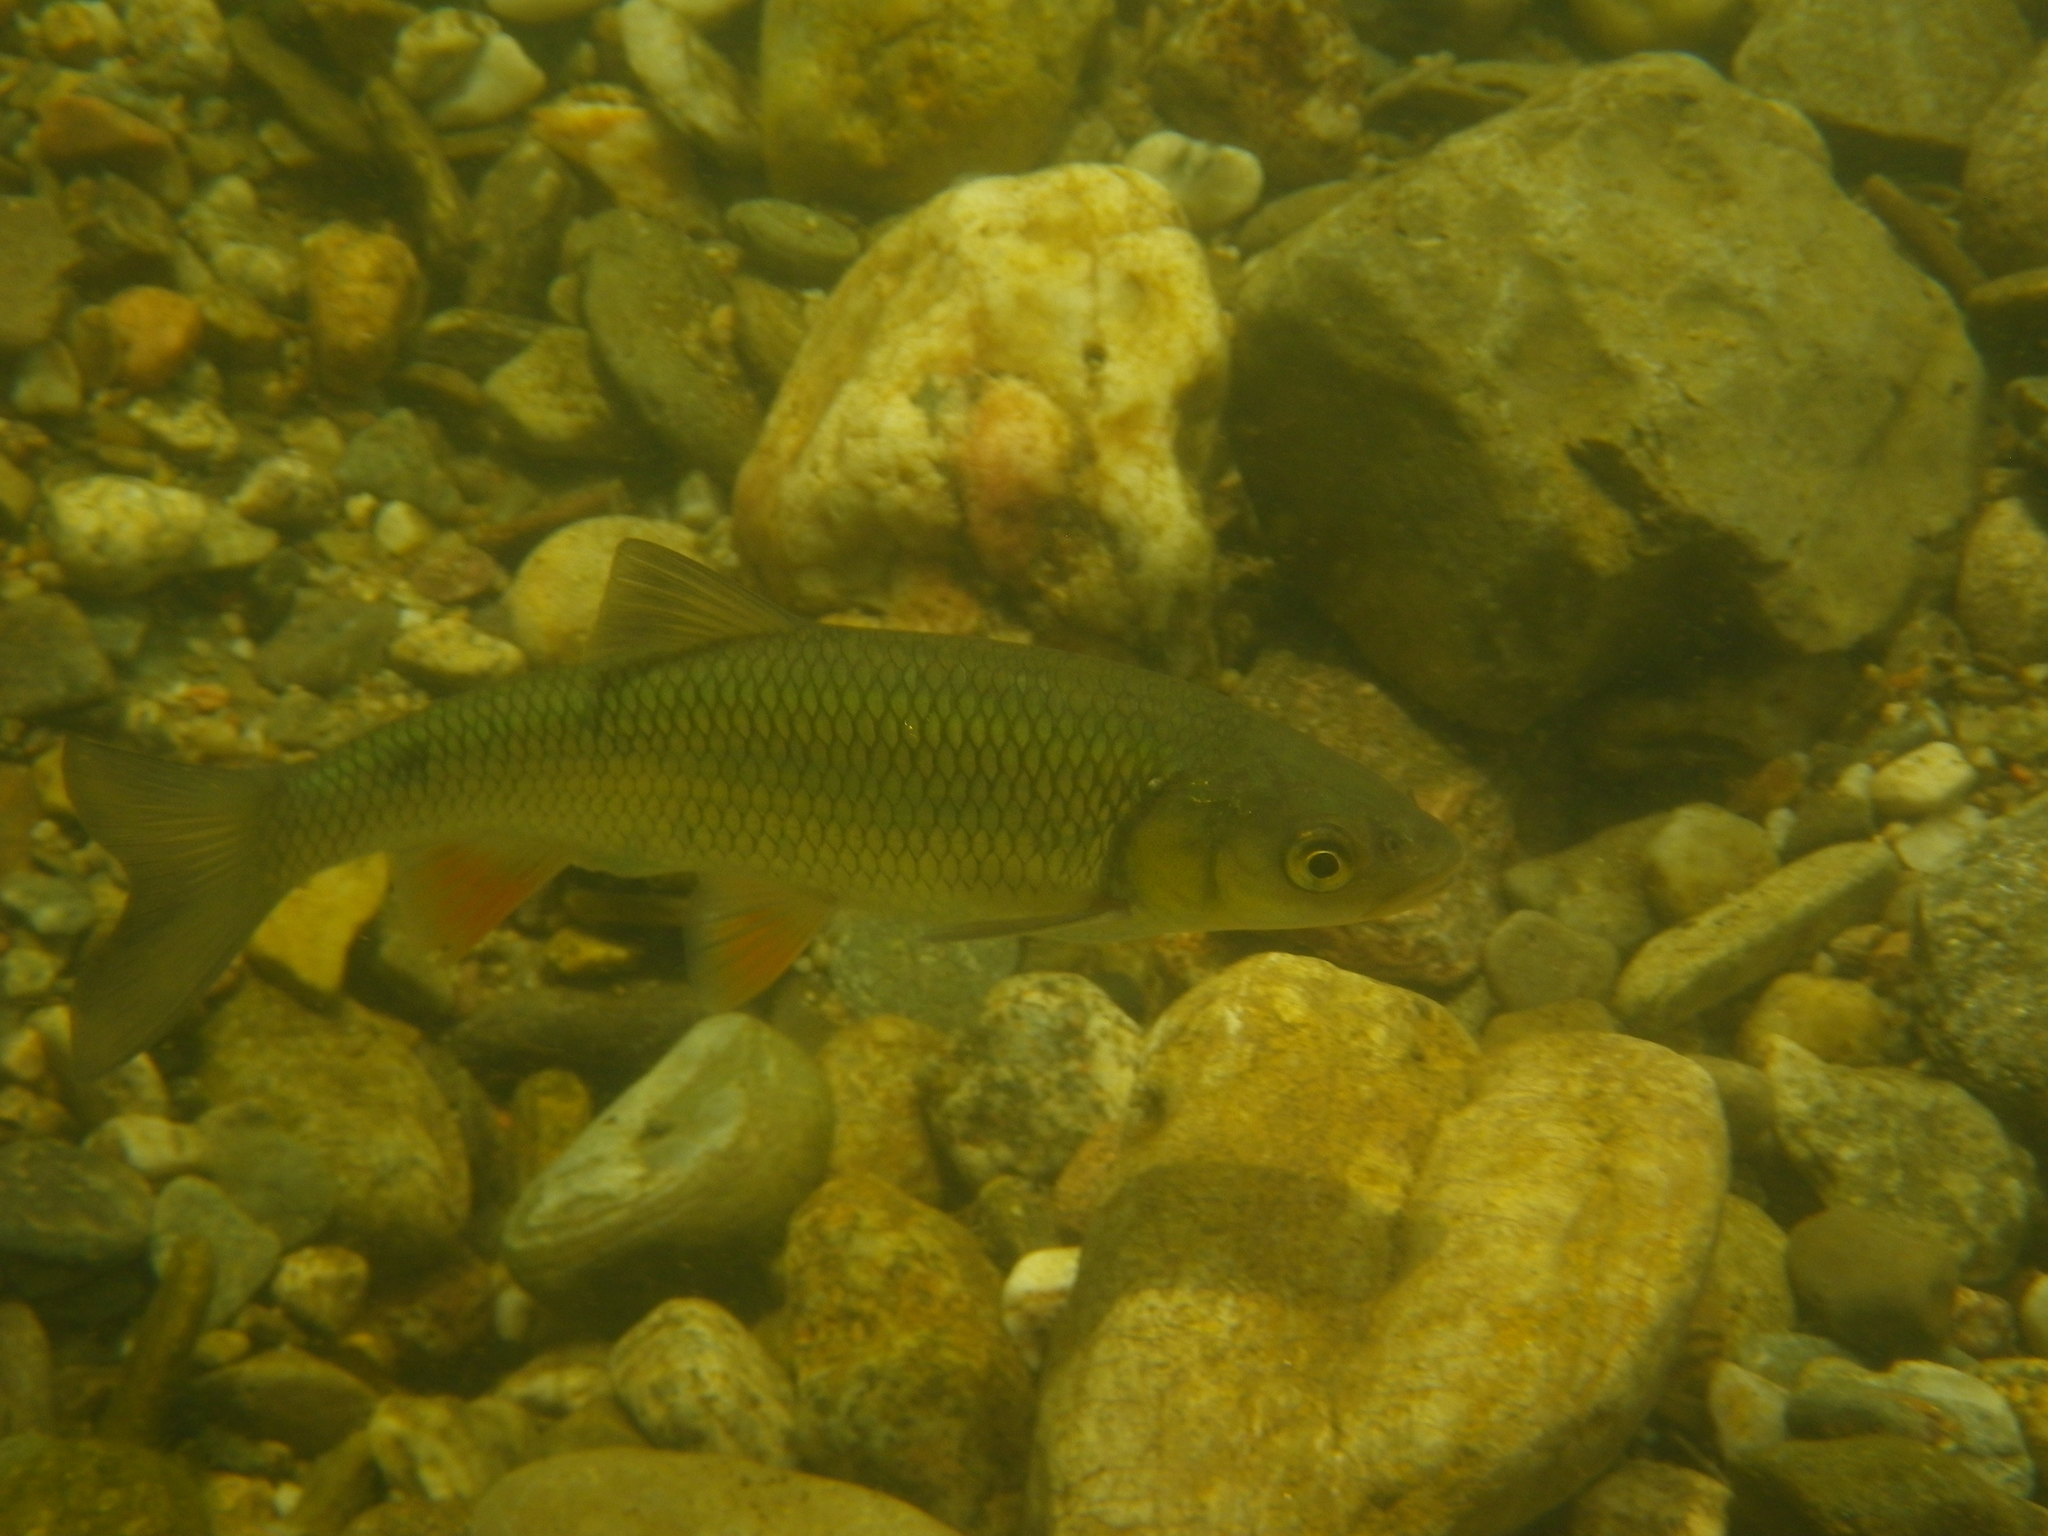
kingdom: Animalia
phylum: Chordata
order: Cypriniformes
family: Cyprinidae
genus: Squalius
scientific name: Squalius cephalus
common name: Chub
